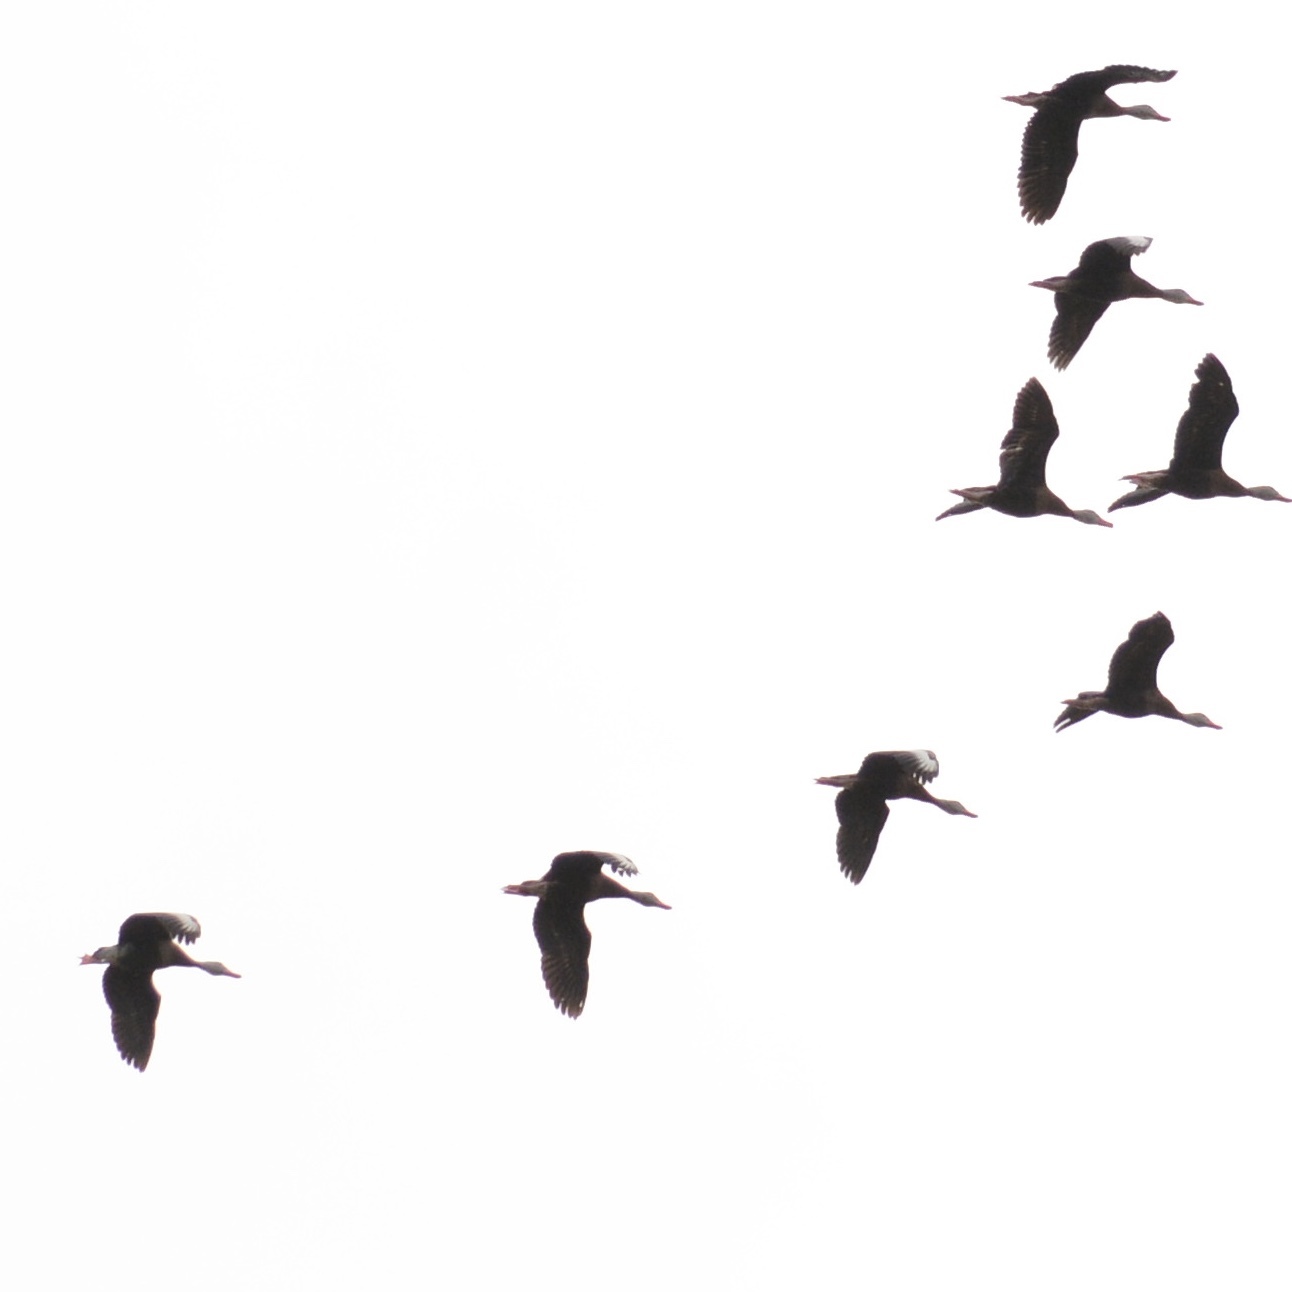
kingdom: Animalia
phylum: Chordata
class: Aves
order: Anseriformes
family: Anatidae
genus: Dendrocygna
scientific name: Dendrocygna autumnalis
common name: Black-bellied whistling duck
